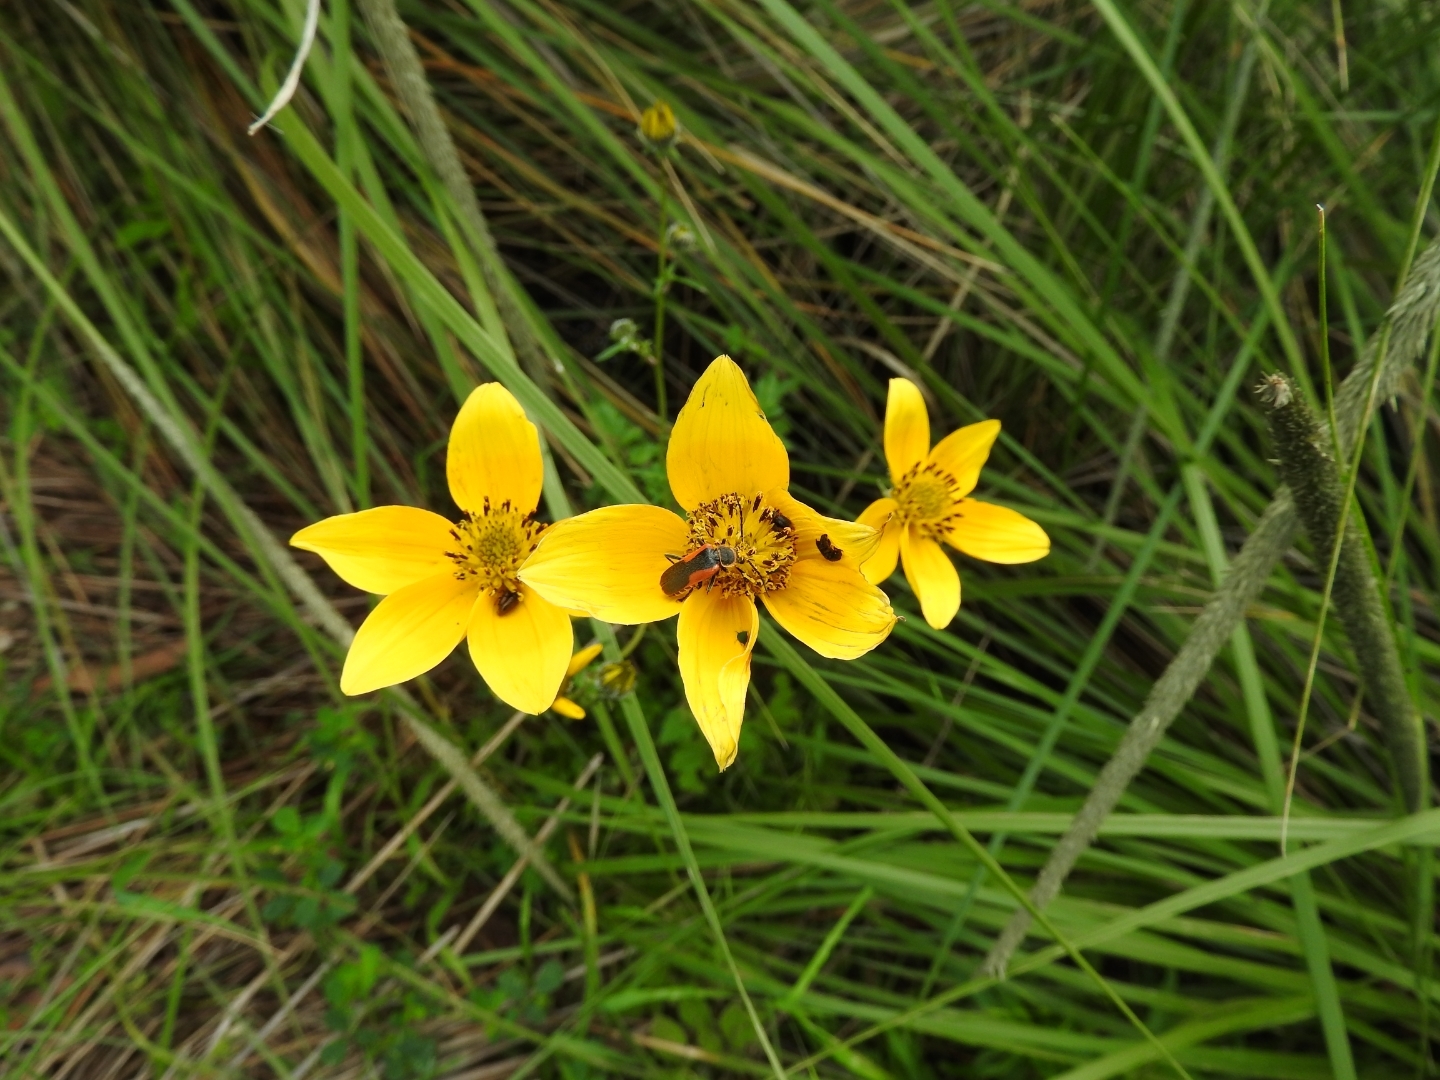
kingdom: Animalia
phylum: Arthropoda
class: Insecta
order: Coleoptera
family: Cantharidae
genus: Chauliognathus
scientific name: Chauliognathus limbicollis
